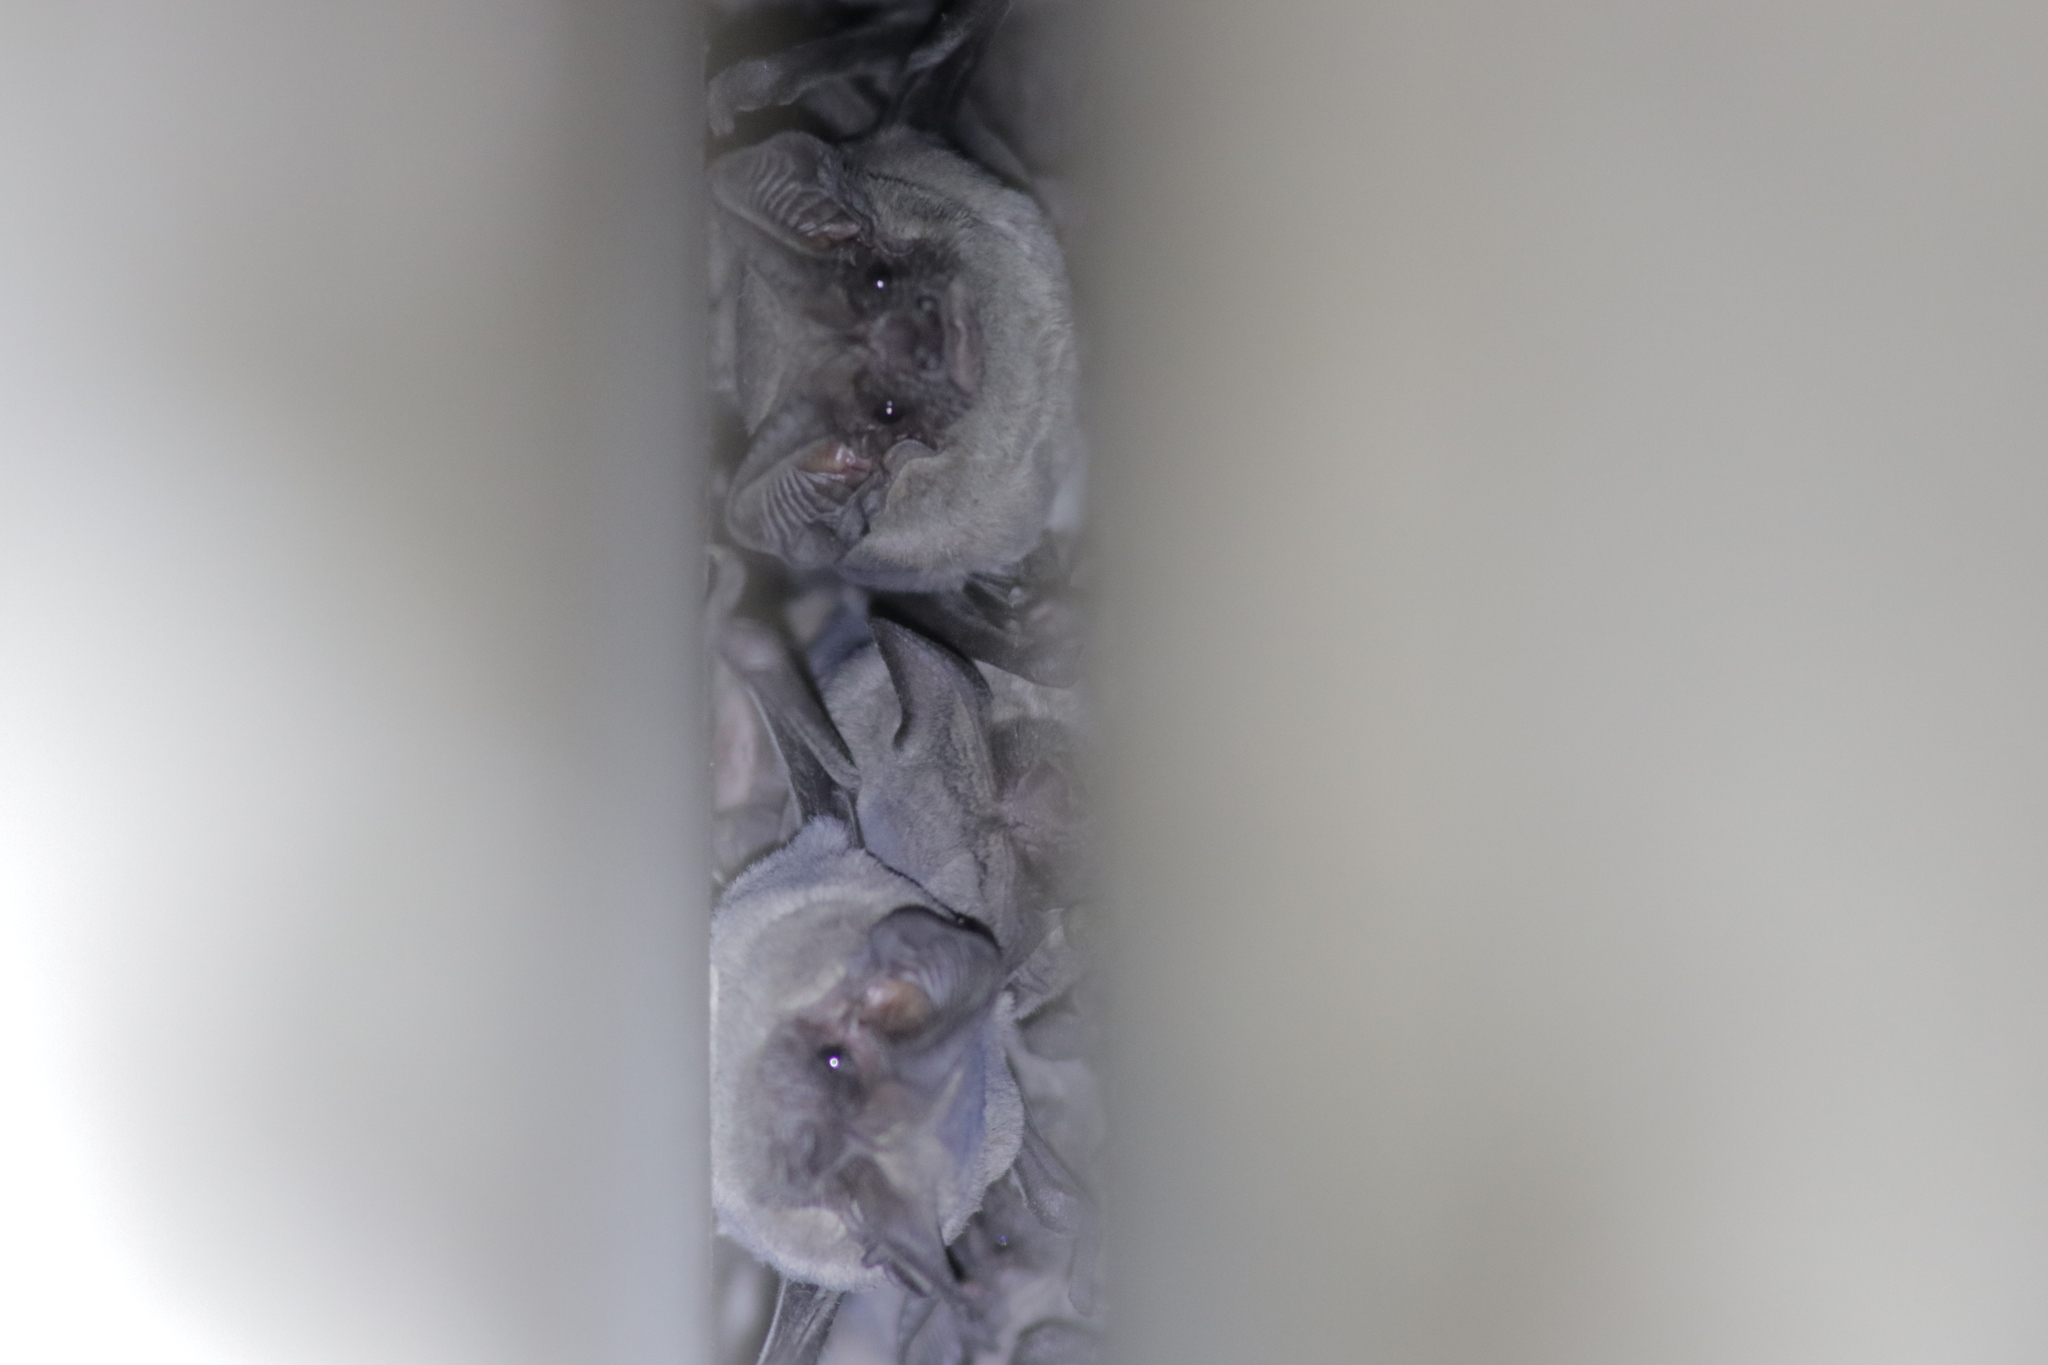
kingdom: Animalia
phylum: Chordata
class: Mammalia
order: Chiroptera
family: Molossidae
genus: Tadarida
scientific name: Tadarida brasiliensis
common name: Mexican free-tailed bat
